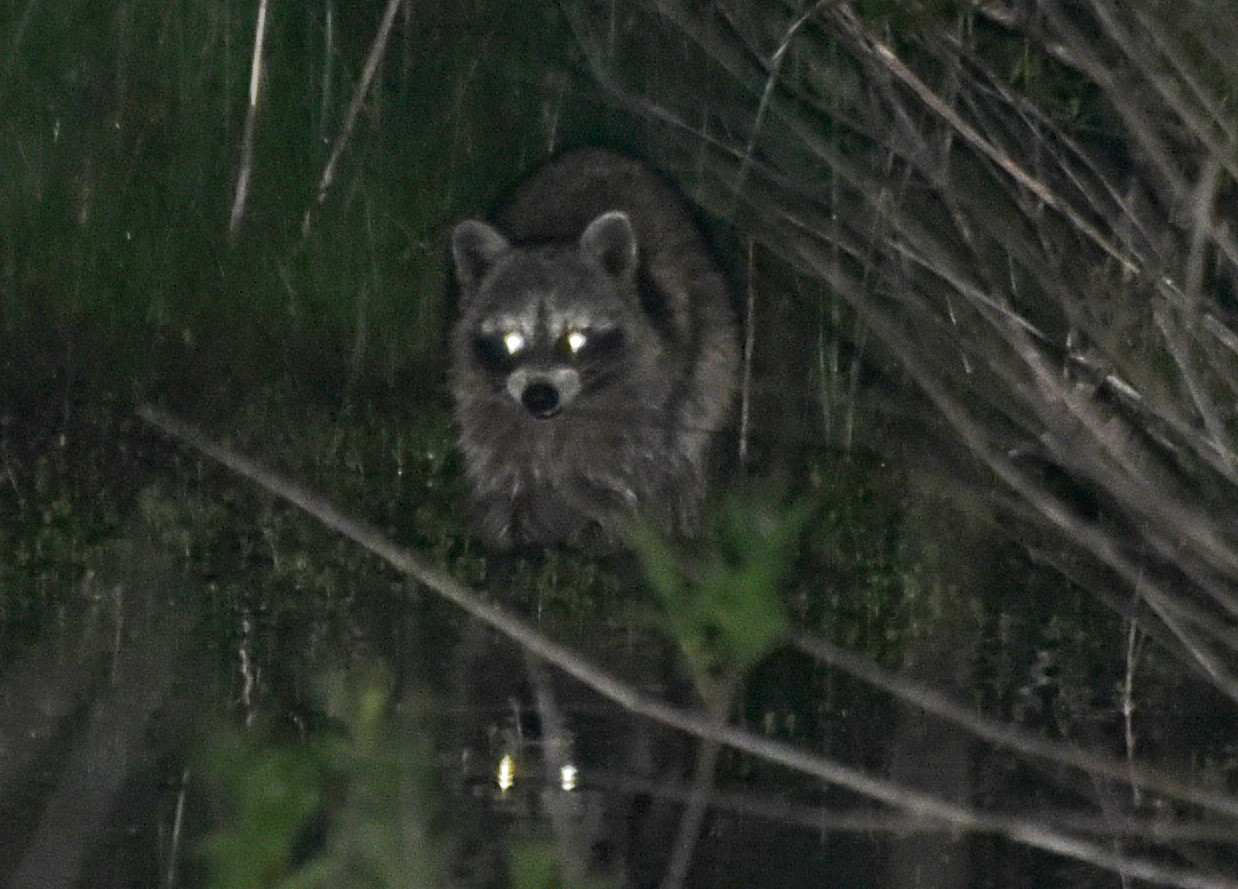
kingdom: Animalia
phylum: Chordata
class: Mammalia
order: Carnivora
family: Procyonidae
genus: Procyon
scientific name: Procyon lotor
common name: Raccoon
